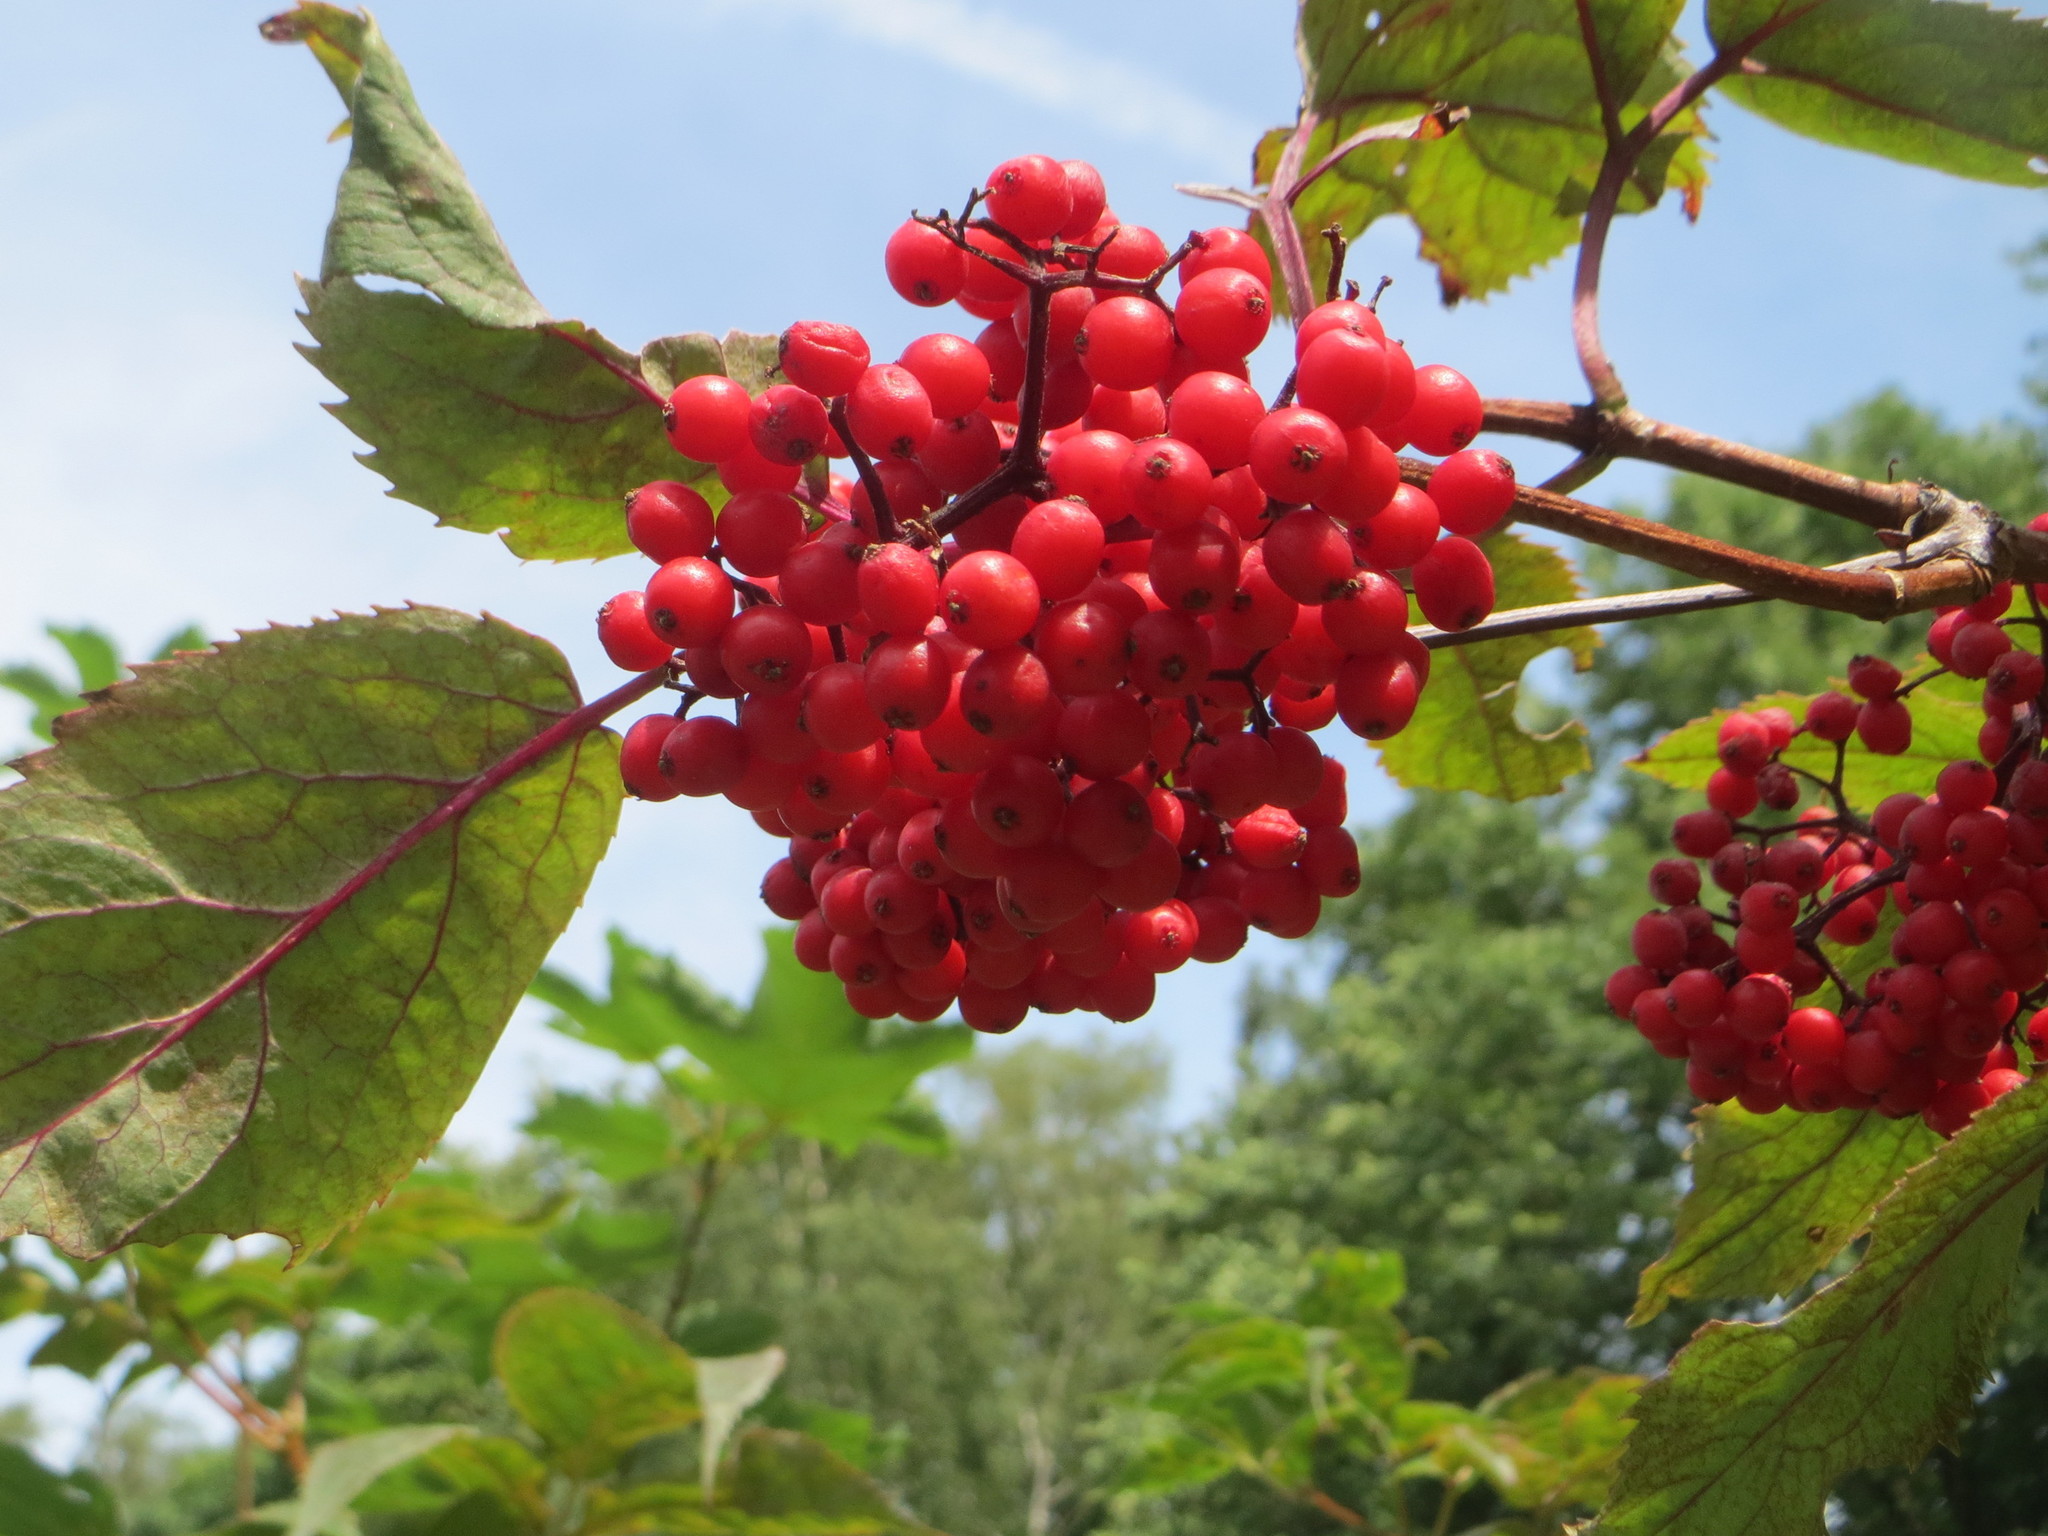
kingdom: Plantae
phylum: Tracheophyta
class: Magnoliopsida
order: Dipsacales
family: Viburnaceae
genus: Sambucus
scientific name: Sambucus racemosa
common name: Red-berried elder
